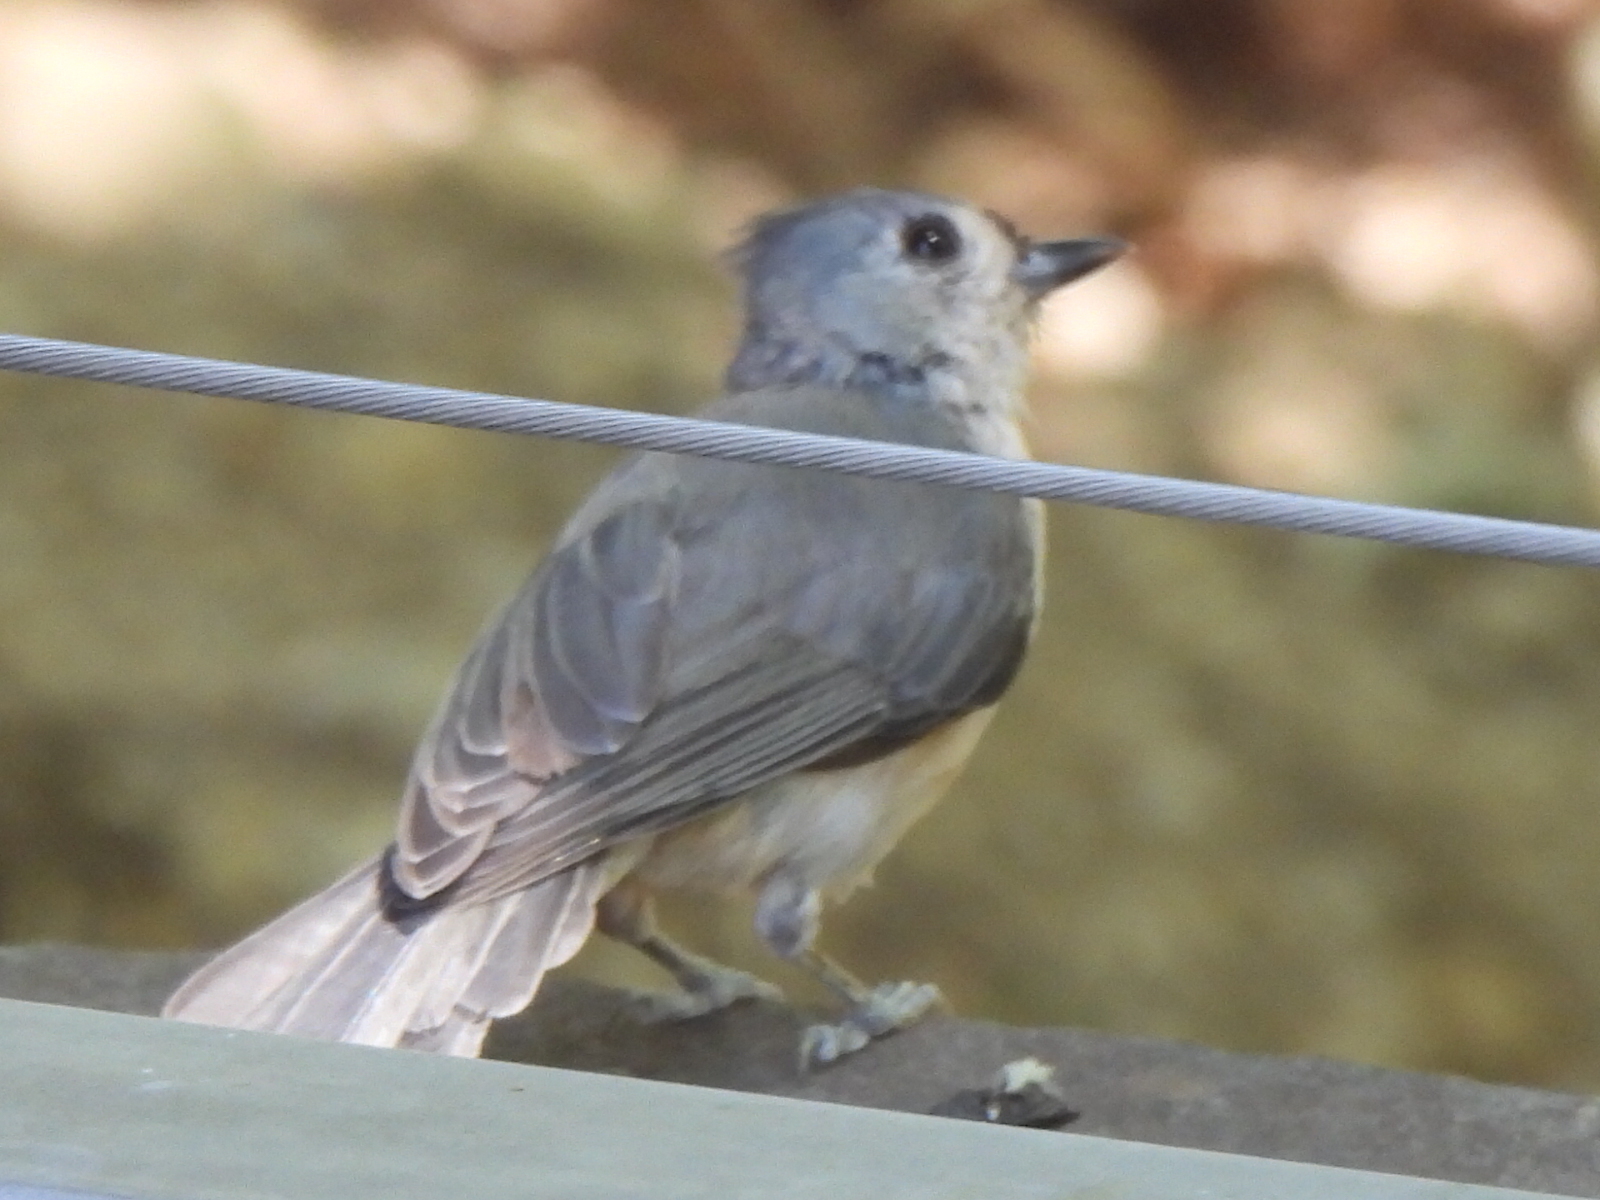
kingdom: Animalia
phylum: Chordata
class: Aves
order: Passeriformes
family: Paridae
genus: Baeolophus
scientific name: Baeolophus bicolor
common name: Tufted titmouse
